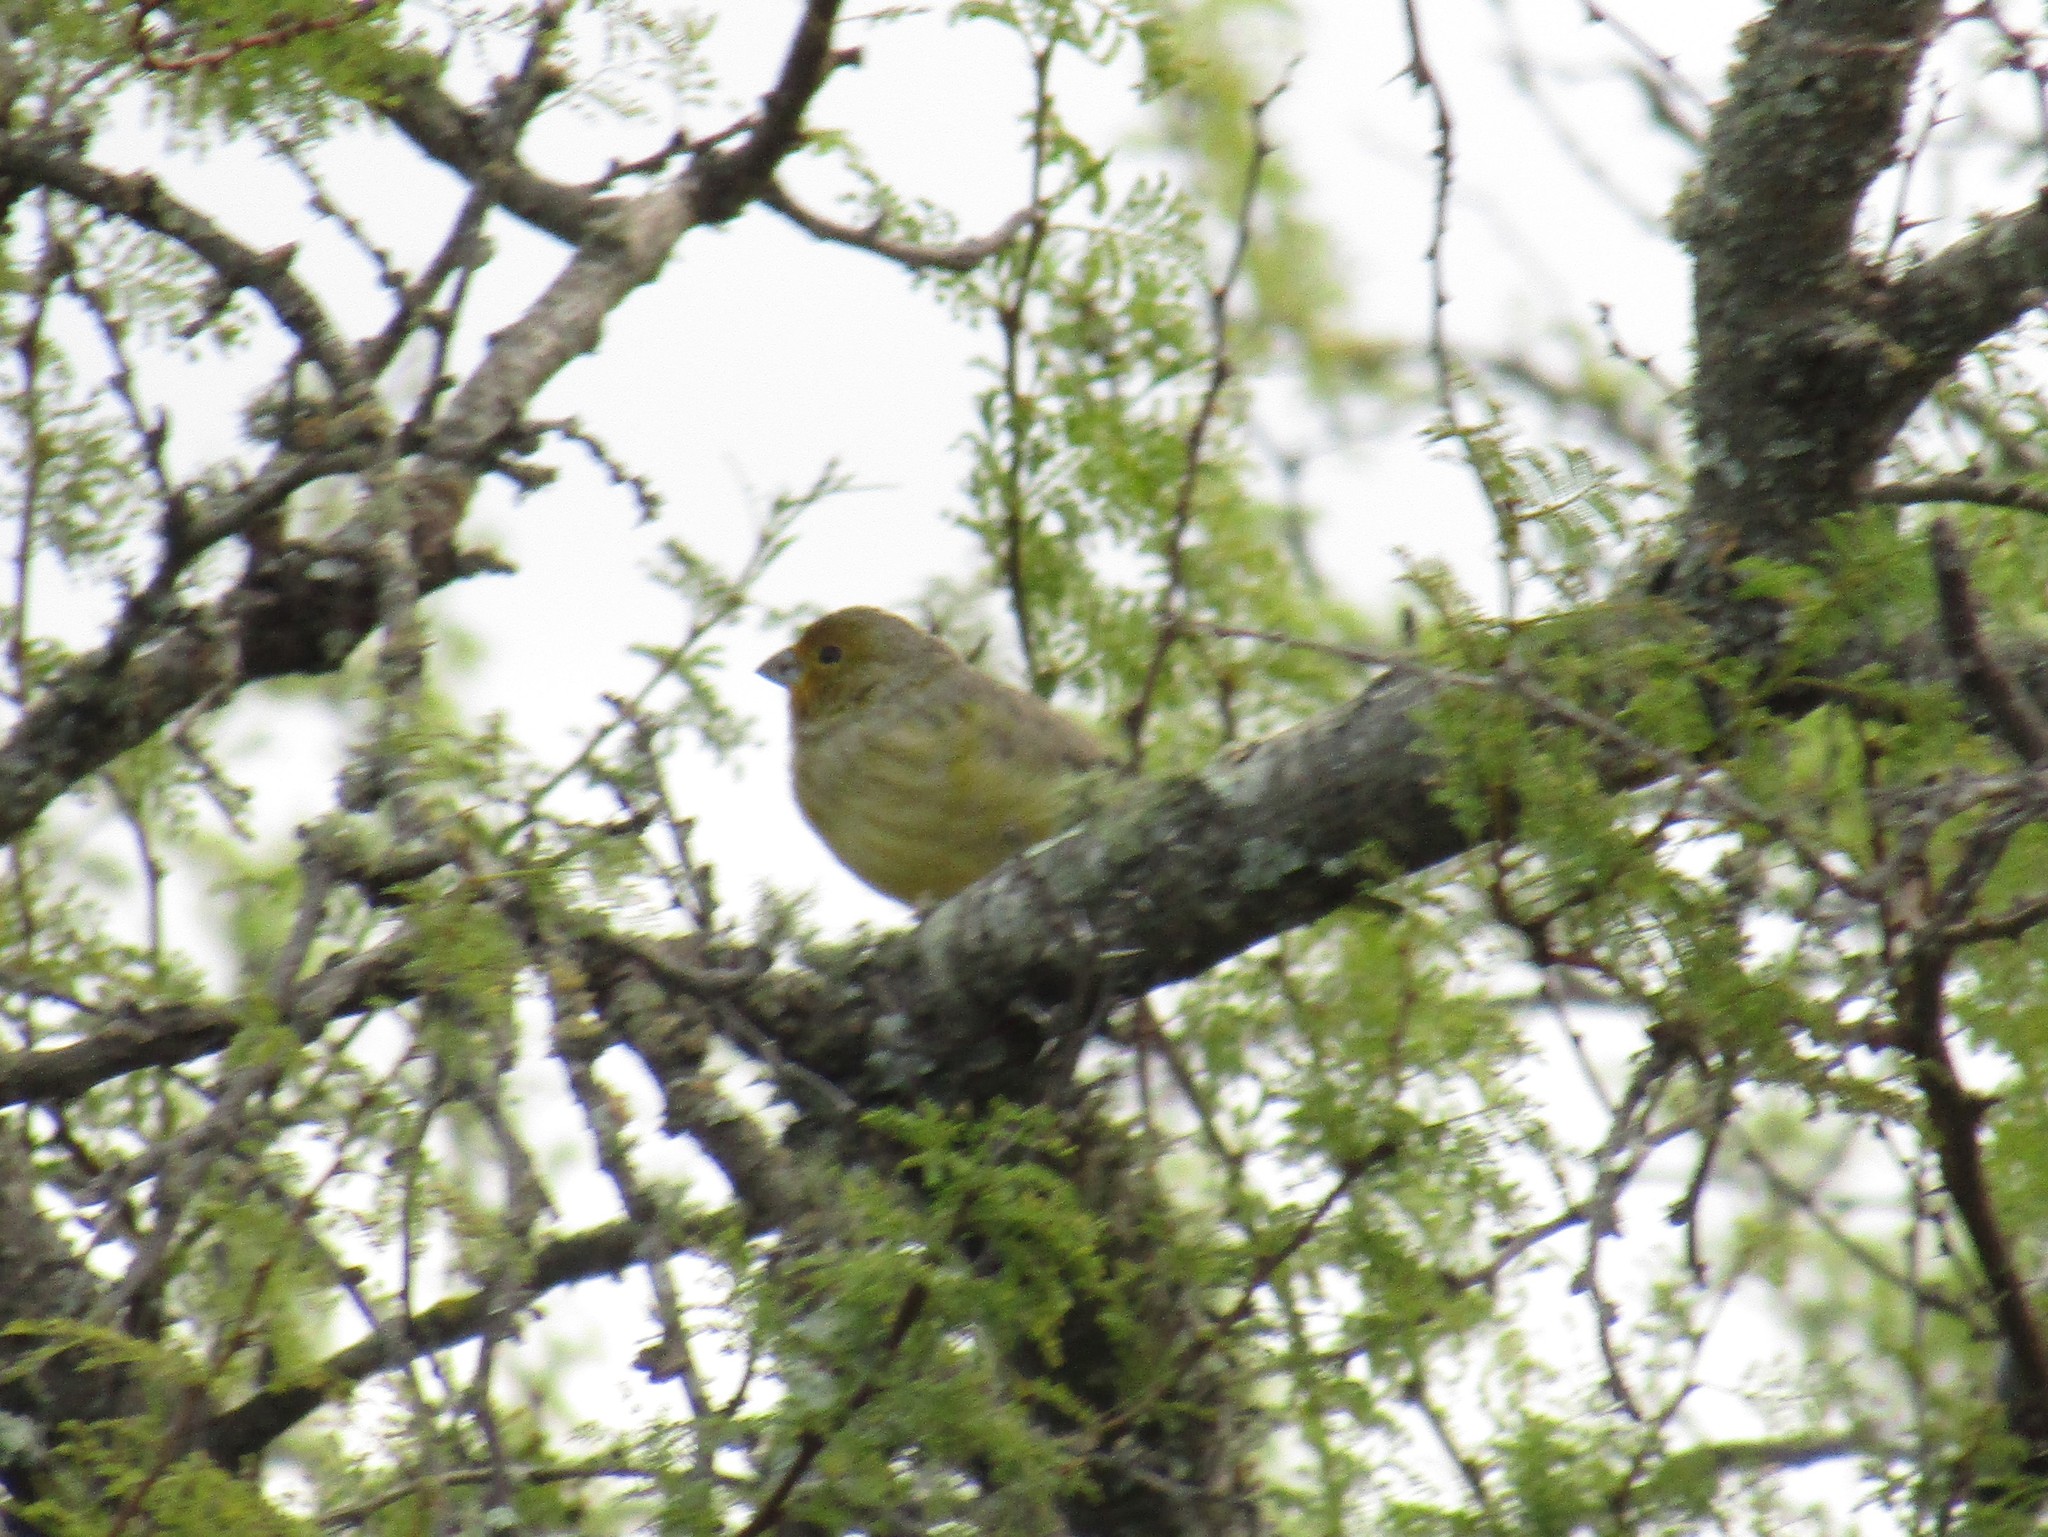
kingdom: Animalia
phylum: Chordata
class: Aves
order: Passeriformes
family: Thraupidae
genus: Sicalis
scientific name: Sicalis flaveola
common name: Saffron finch
